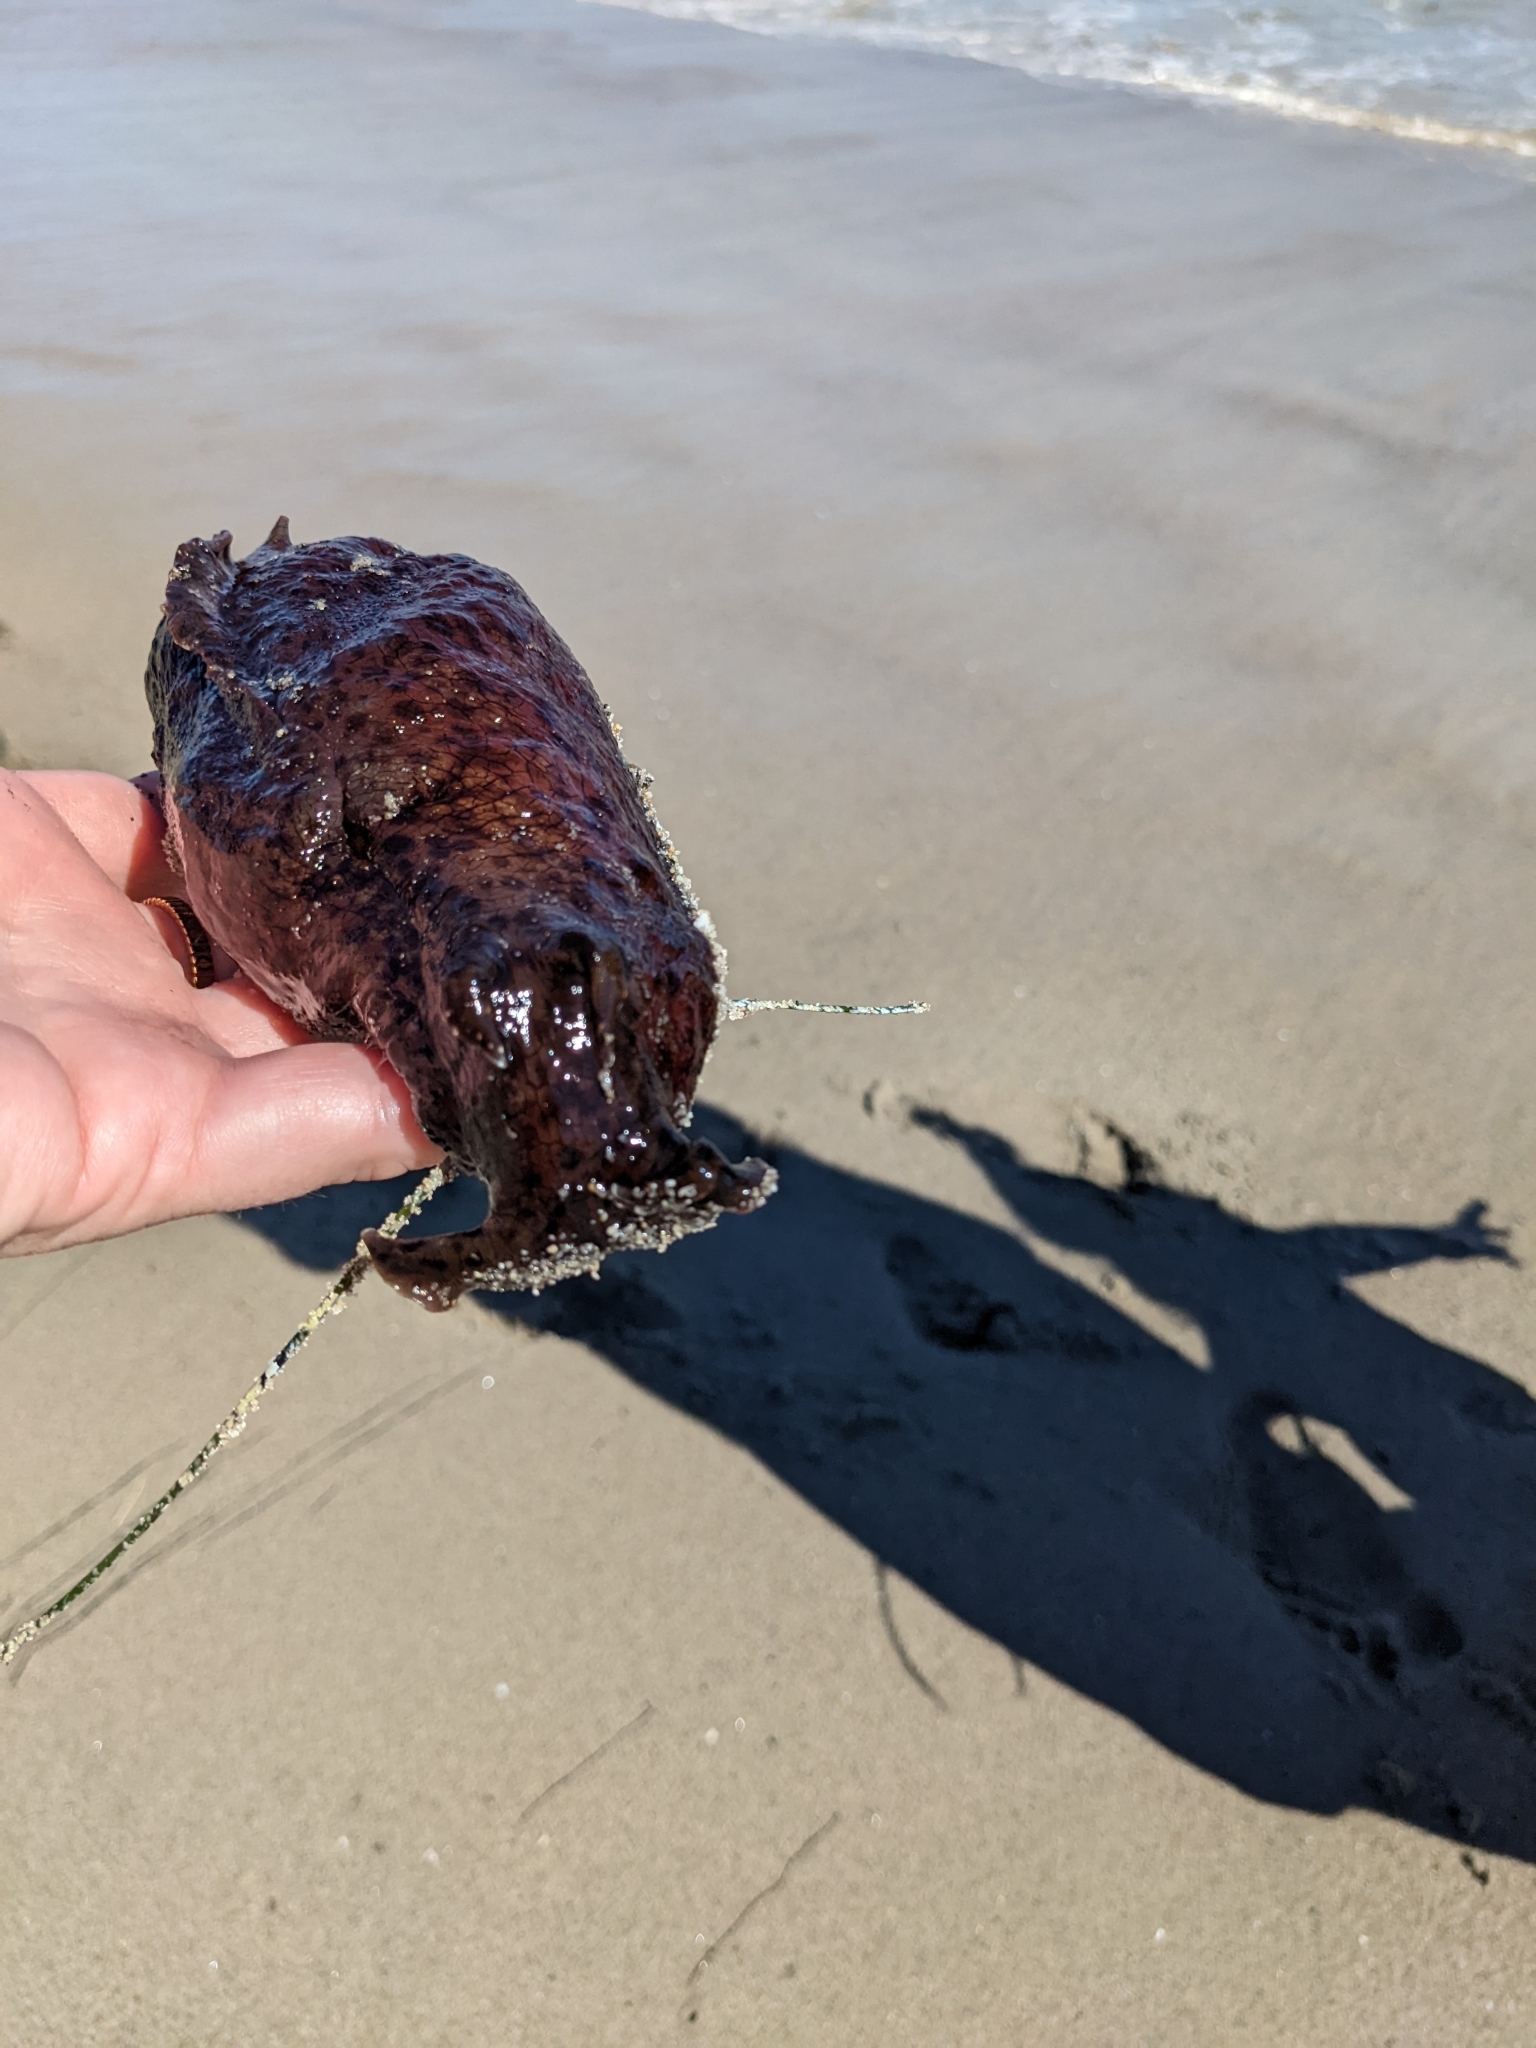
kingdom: Animalia
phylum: Mollusca
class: Gastropoda
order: Aplysiida
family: Aplysiidae
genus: Aplysia
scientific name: Aplysia californica
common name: California seahare
